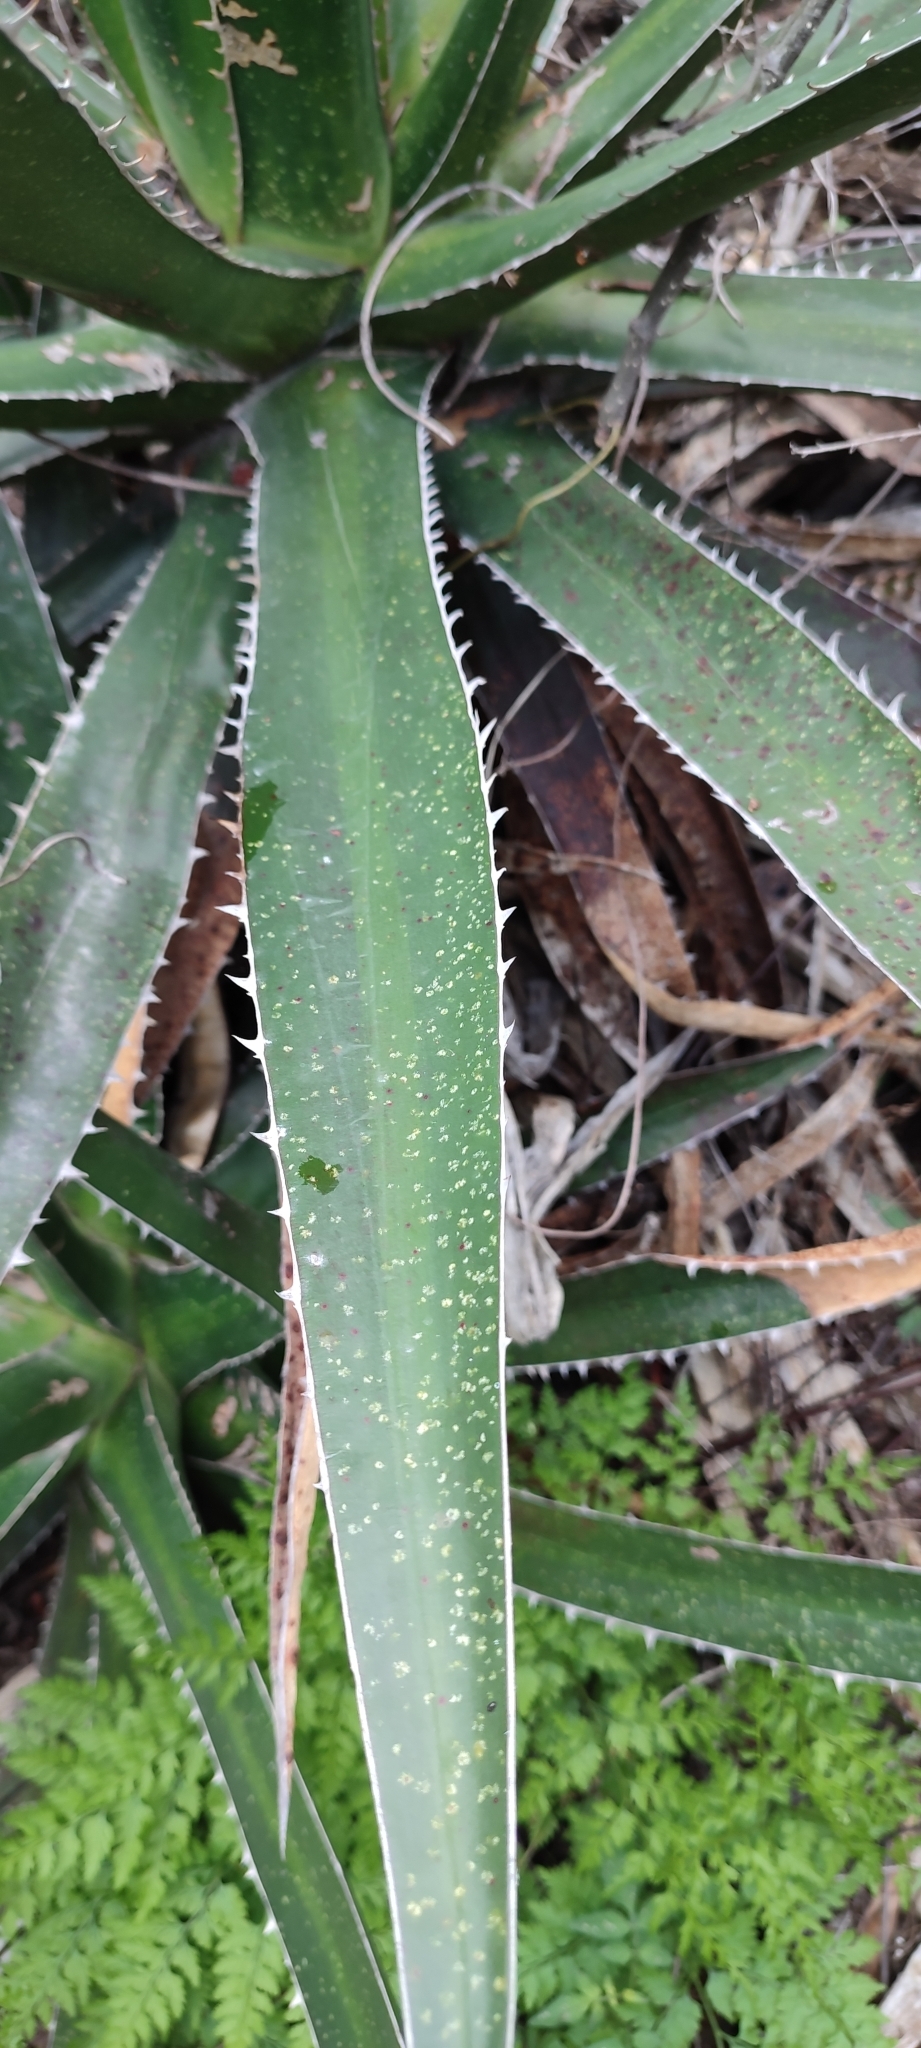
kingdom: Plantae
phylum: Tracheophyta
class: Liliopsida
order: Asparagales
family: Asparagaceae
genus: Agave
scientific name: Agave angustiarum
